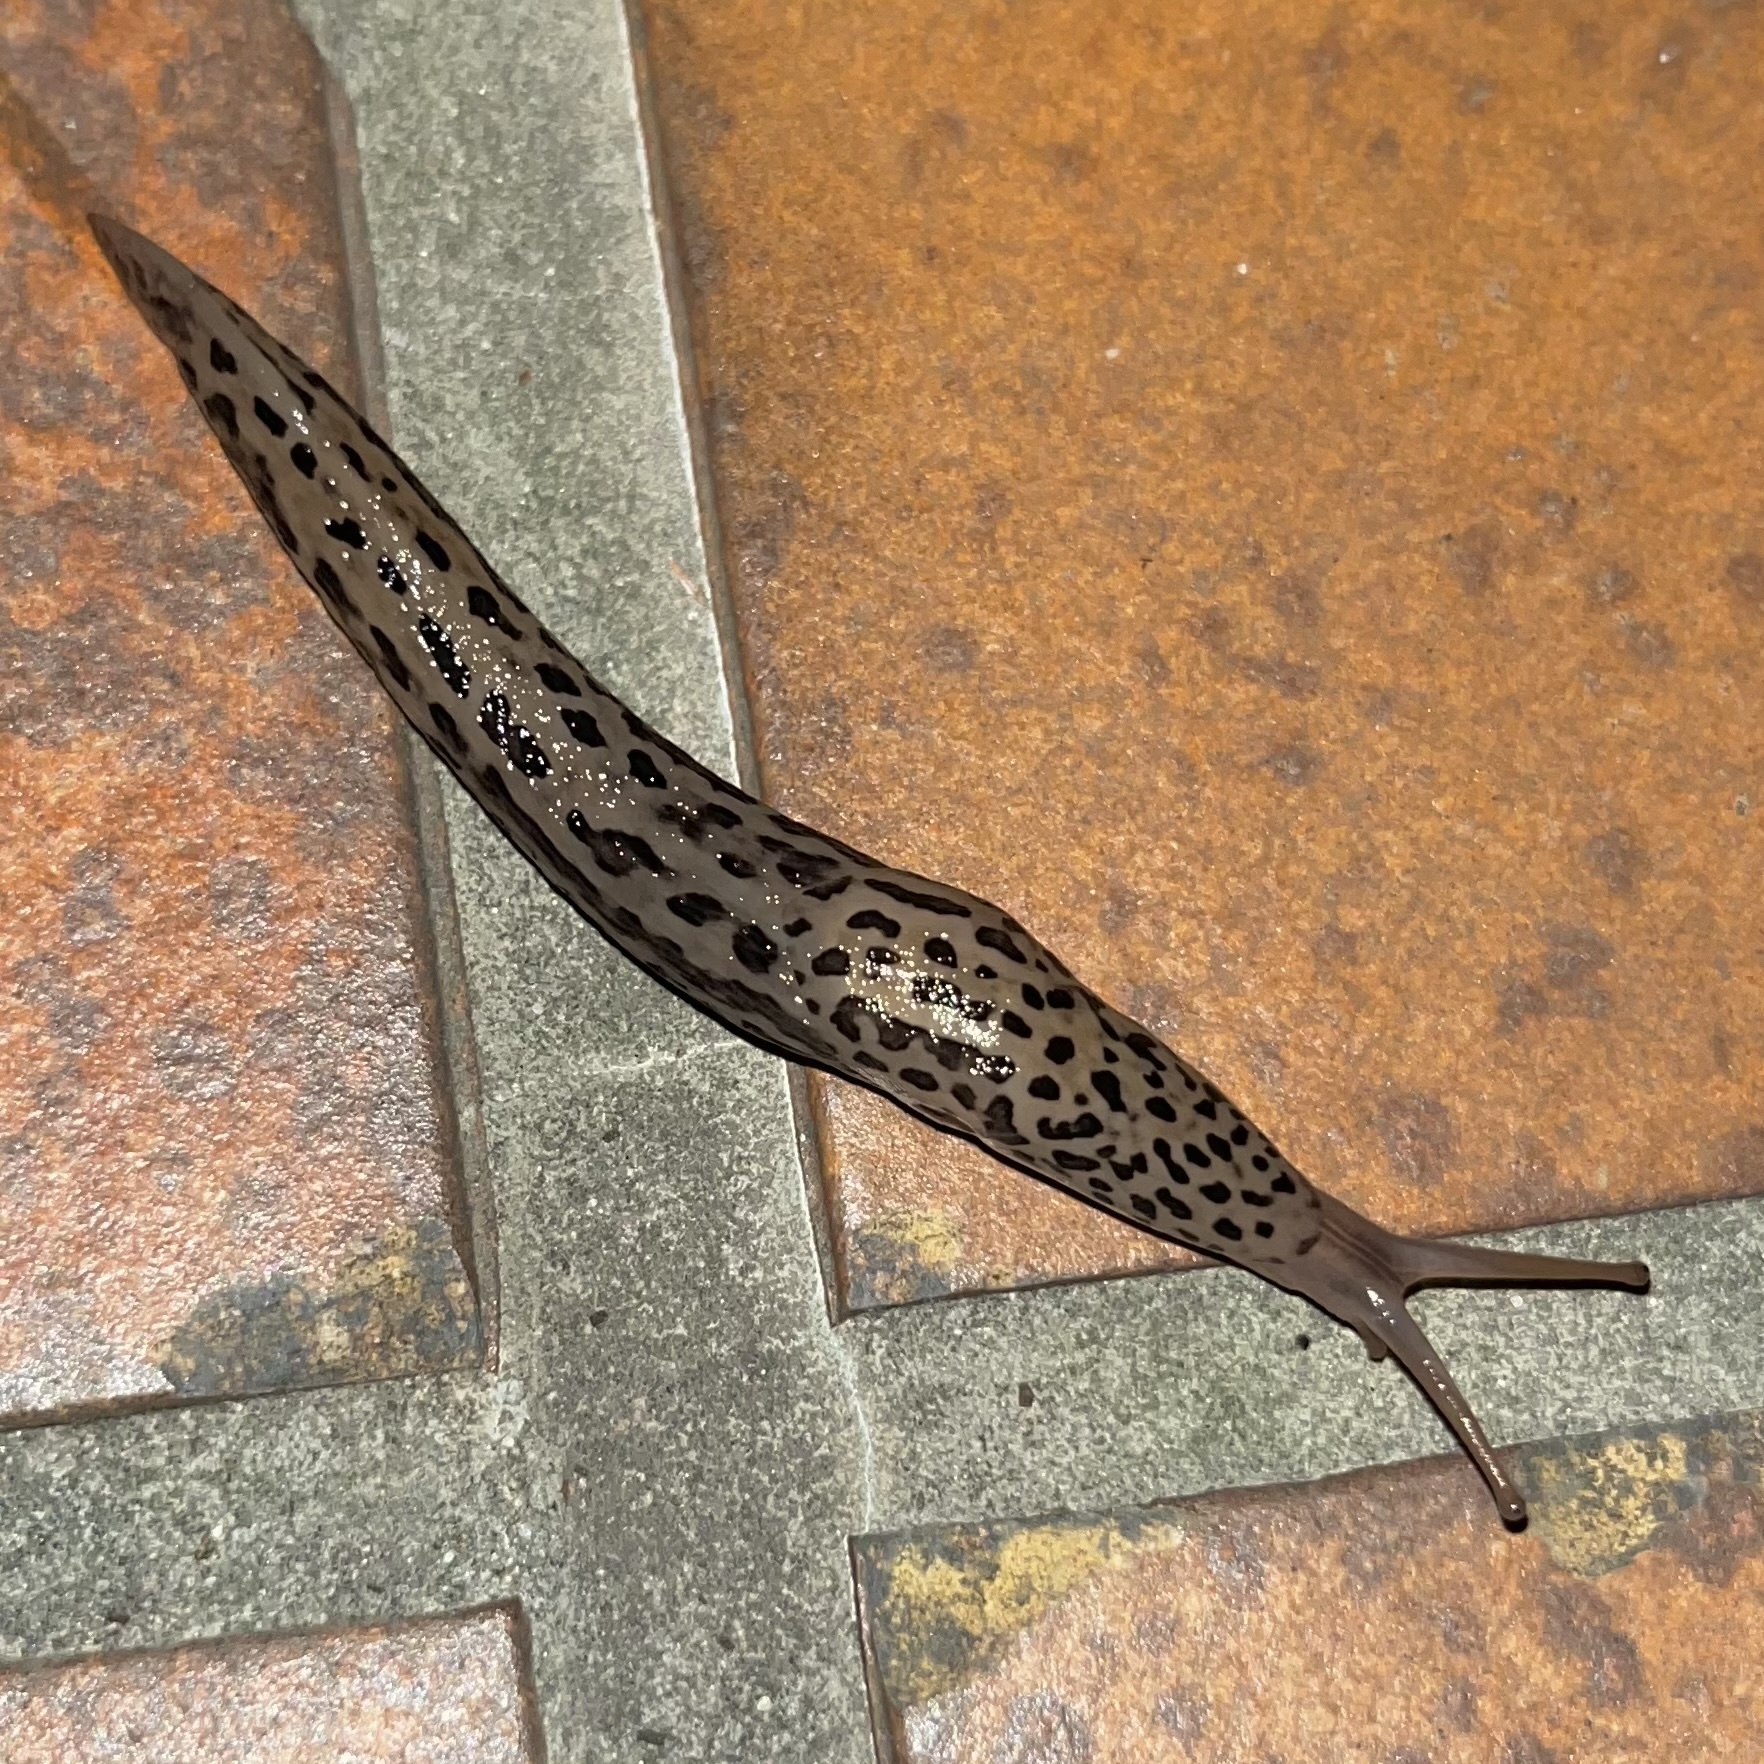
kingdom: Animalia
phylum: Mollusca
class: Gastropoda
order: Stylommatophora
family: Limacidae
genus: Limax
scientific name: Limax maximus
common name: Great grey slug
